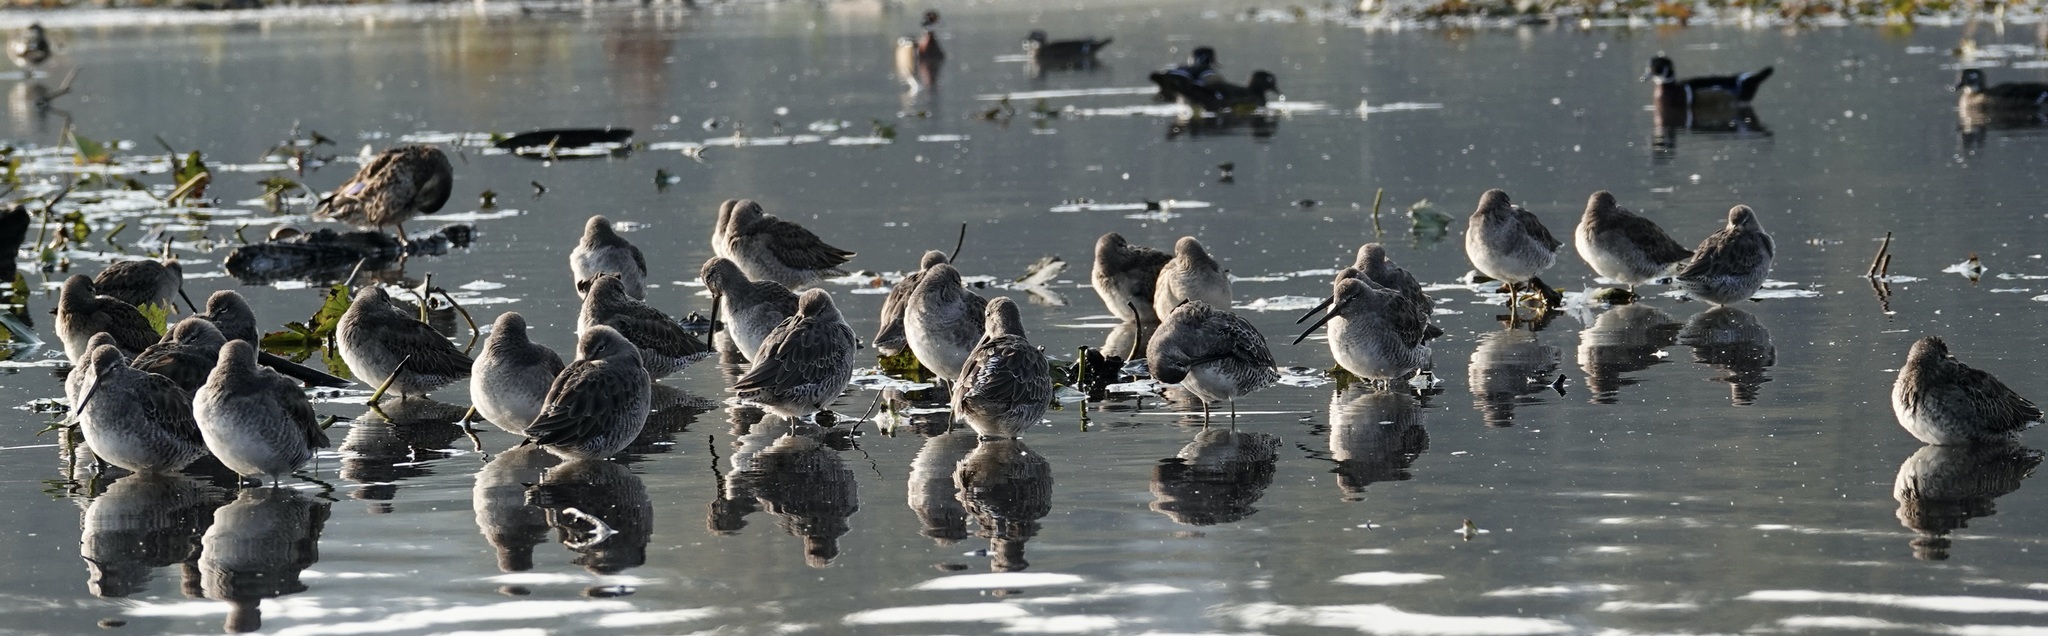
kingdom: Animalia
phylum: Chordata
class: Aves
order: Charadriiformes
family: Scolopacidae
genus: Limnodromus
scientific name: Limnodromus scolopaceus
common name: Long-billed dowitcher
